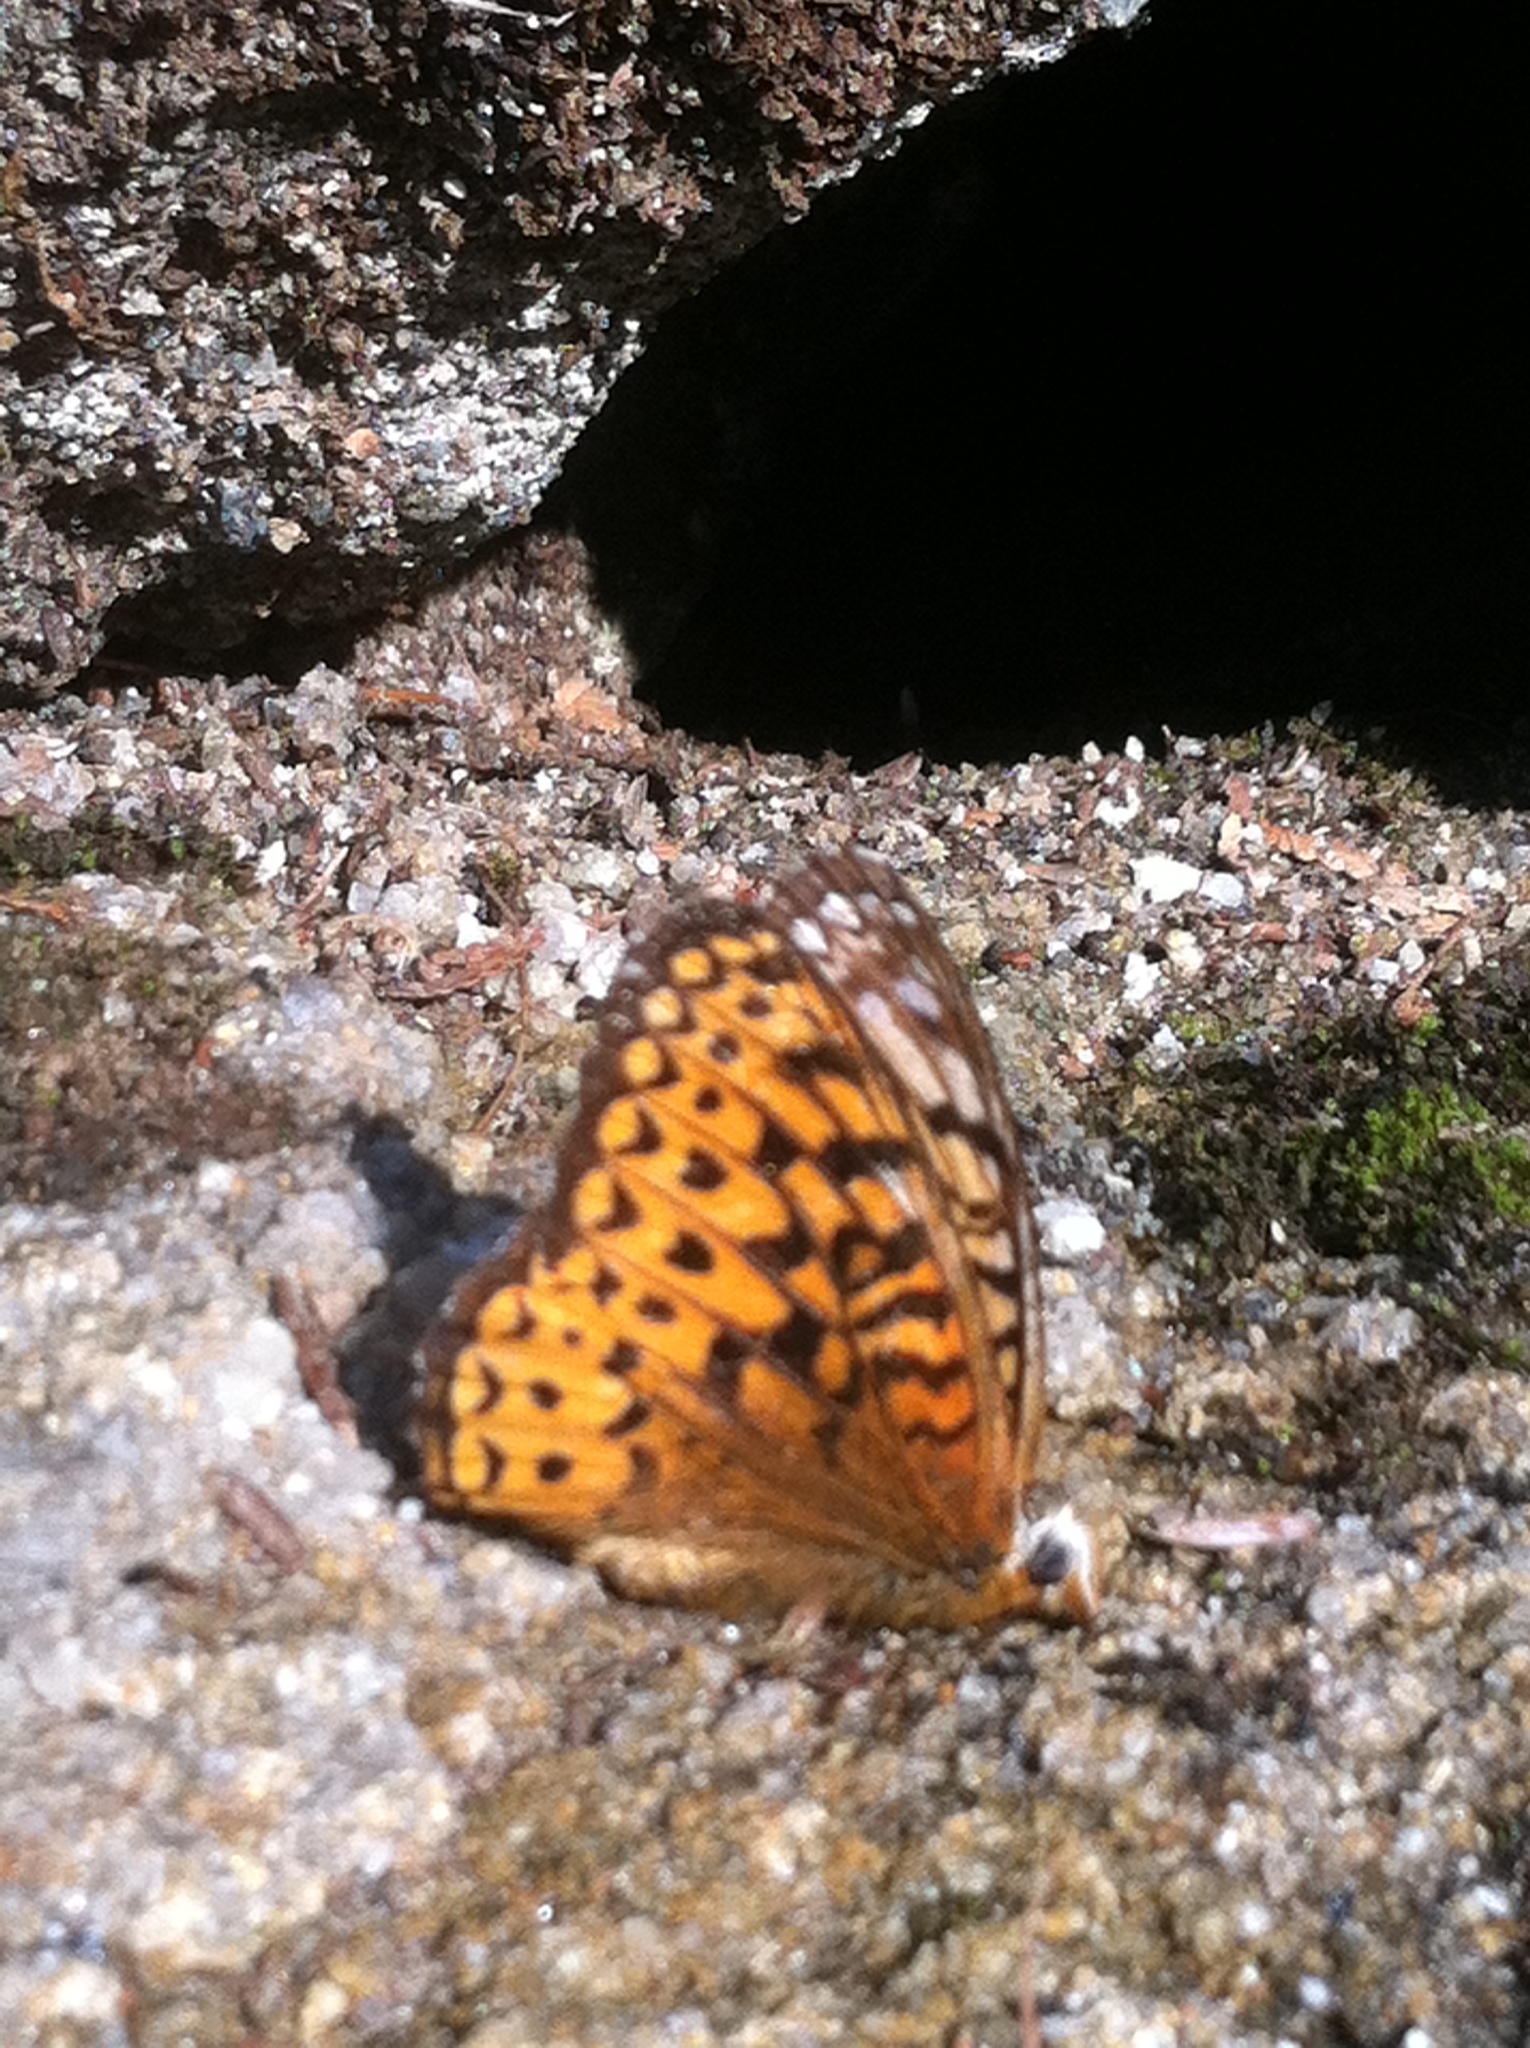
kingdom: Animalia
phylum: Arthropoda
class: Insecta
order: Lepidoptera
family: Nymphalidae
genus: Speyeria
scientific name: Speyeria atlantis
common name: Atlantis fritillary
